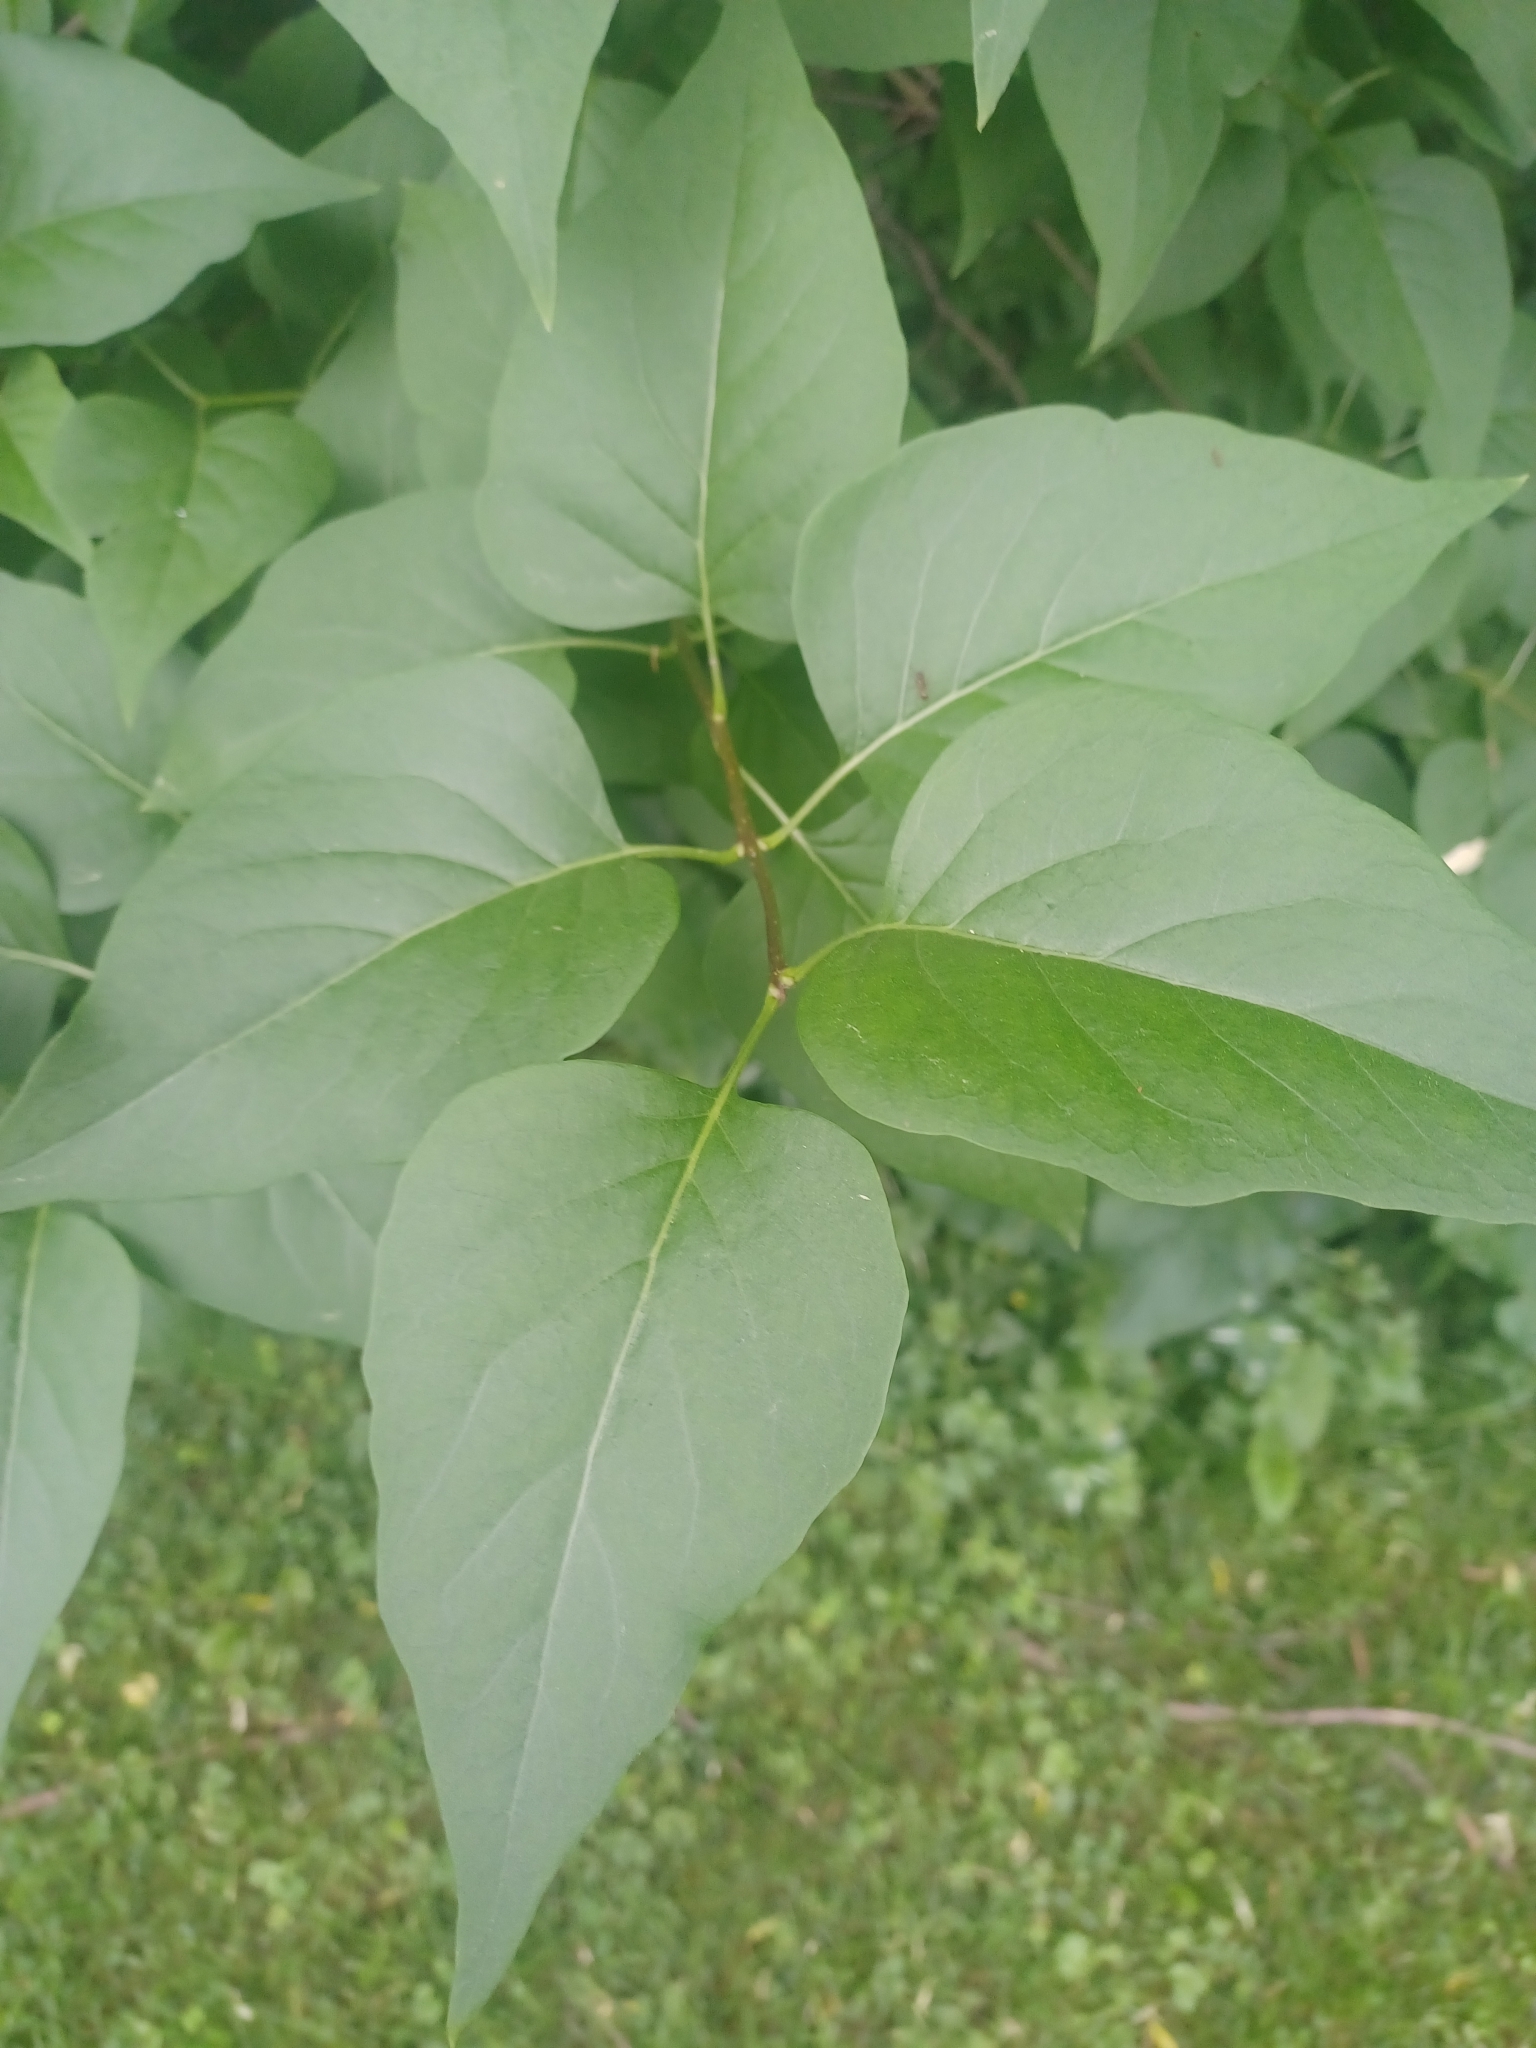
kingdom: Plantae
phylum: Tracheophyta
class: Magnoliopsida
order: Lamiales
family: Oleaceae
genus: Syringa
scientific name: Syringa vulgaris
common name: Common lilac
